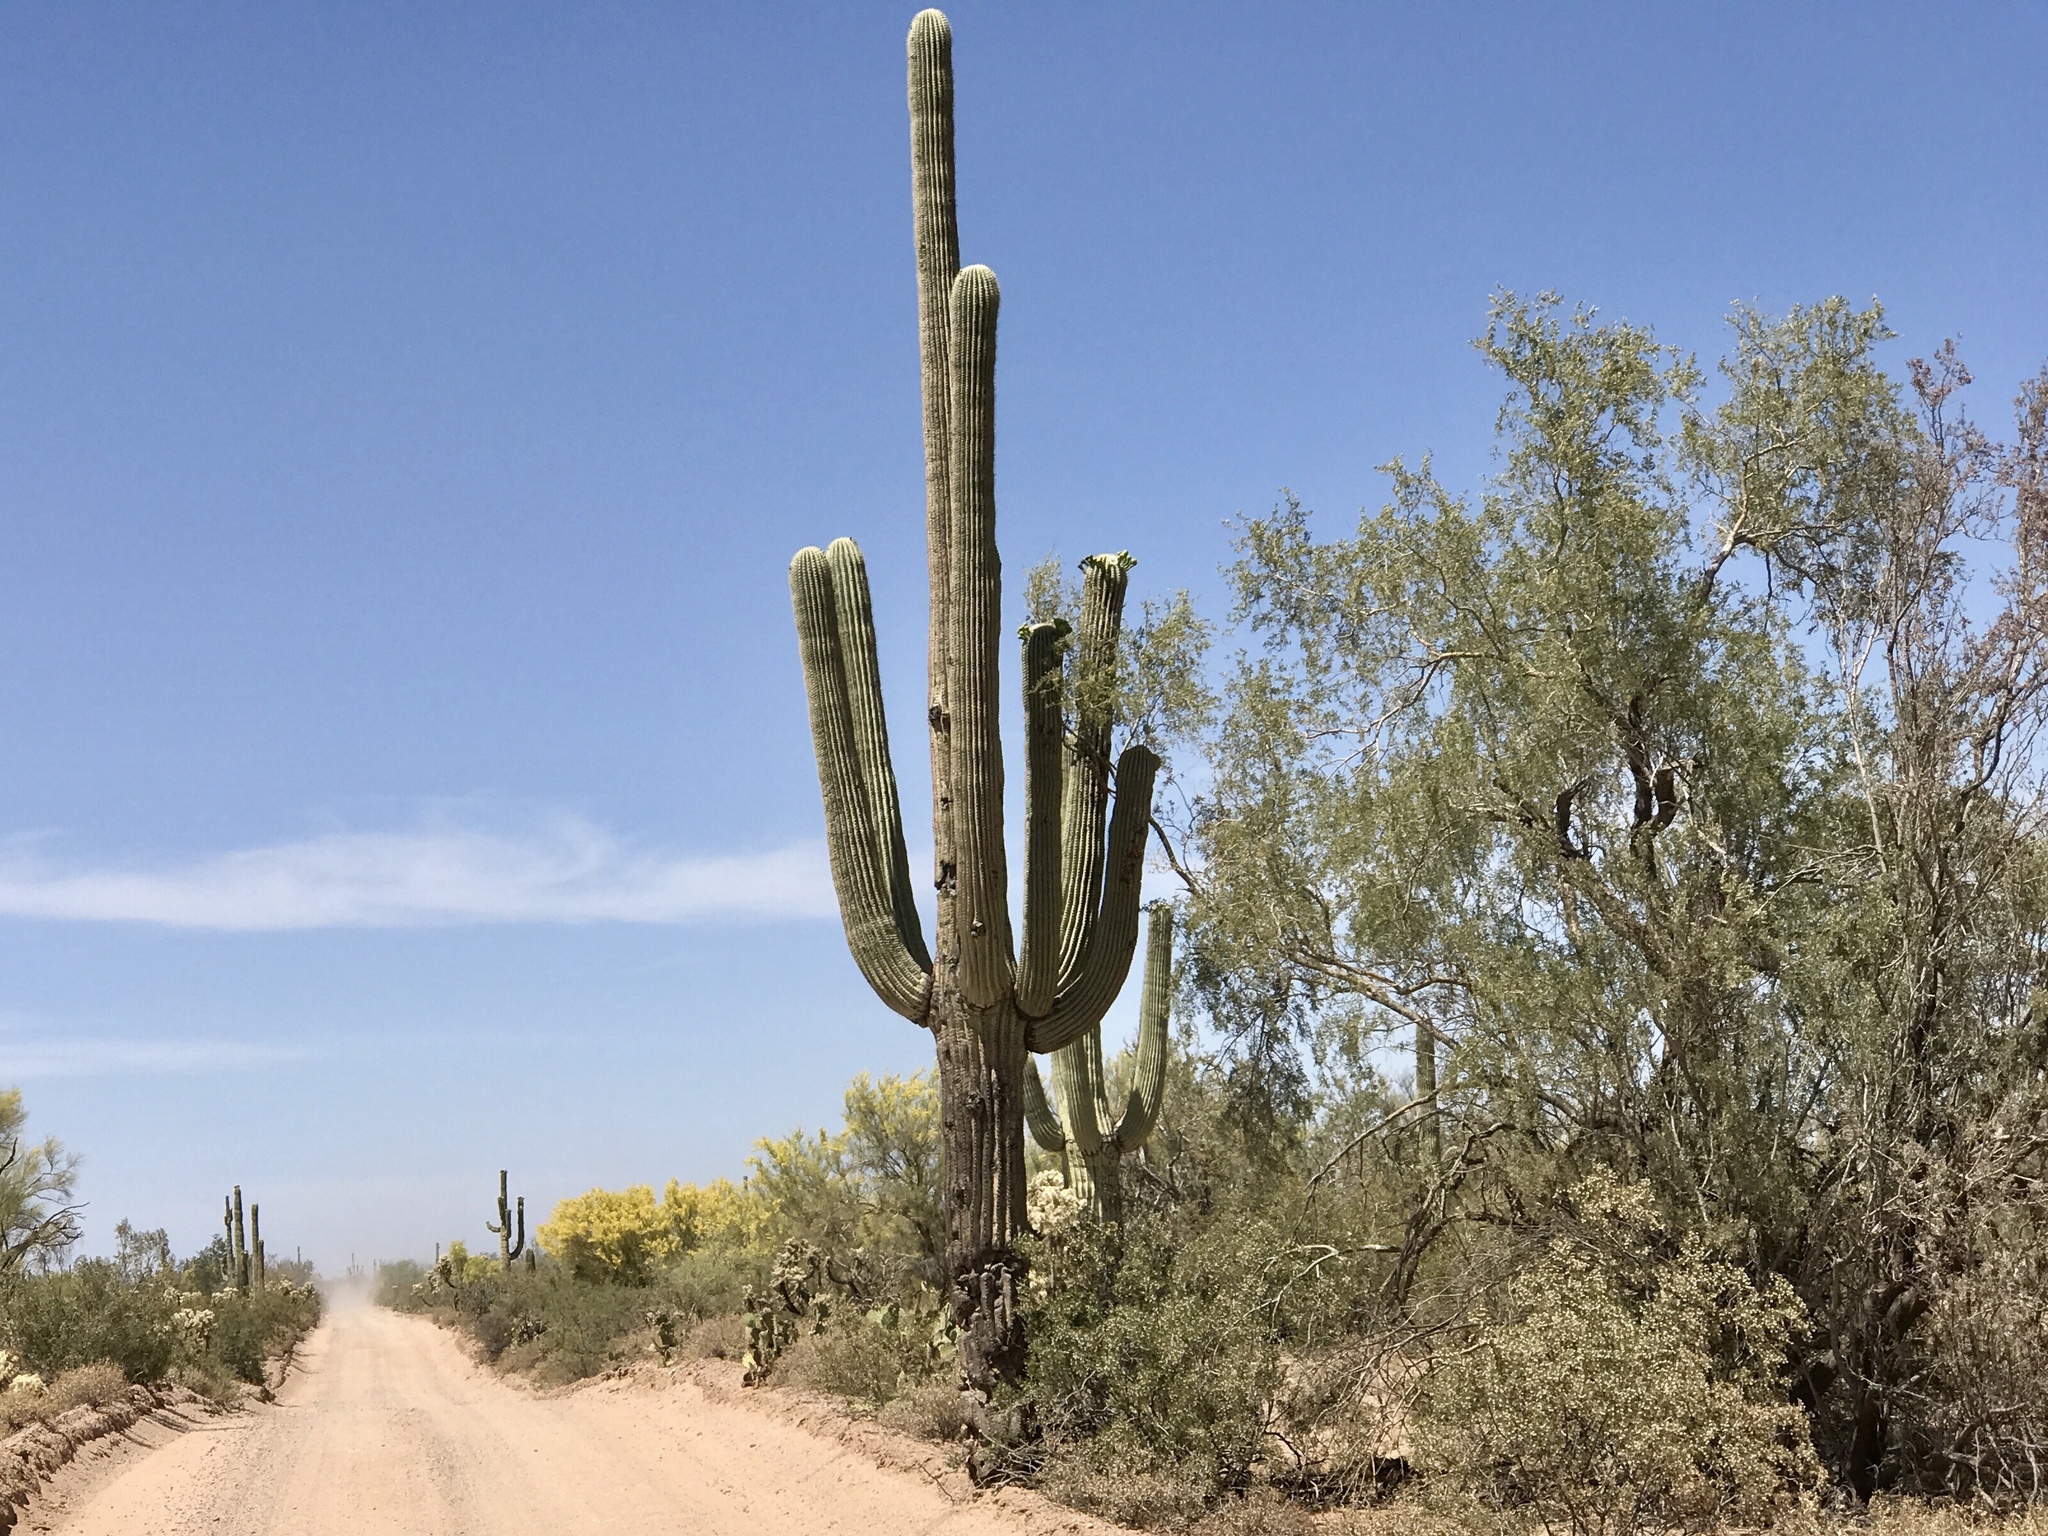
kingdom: Plantae
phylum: Tracheophyta
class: Magnoliopsida
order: Caryophyllales
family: Cactaceae
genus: Carnegiea
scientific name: Carnegiea gigantea
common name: Saguaro
